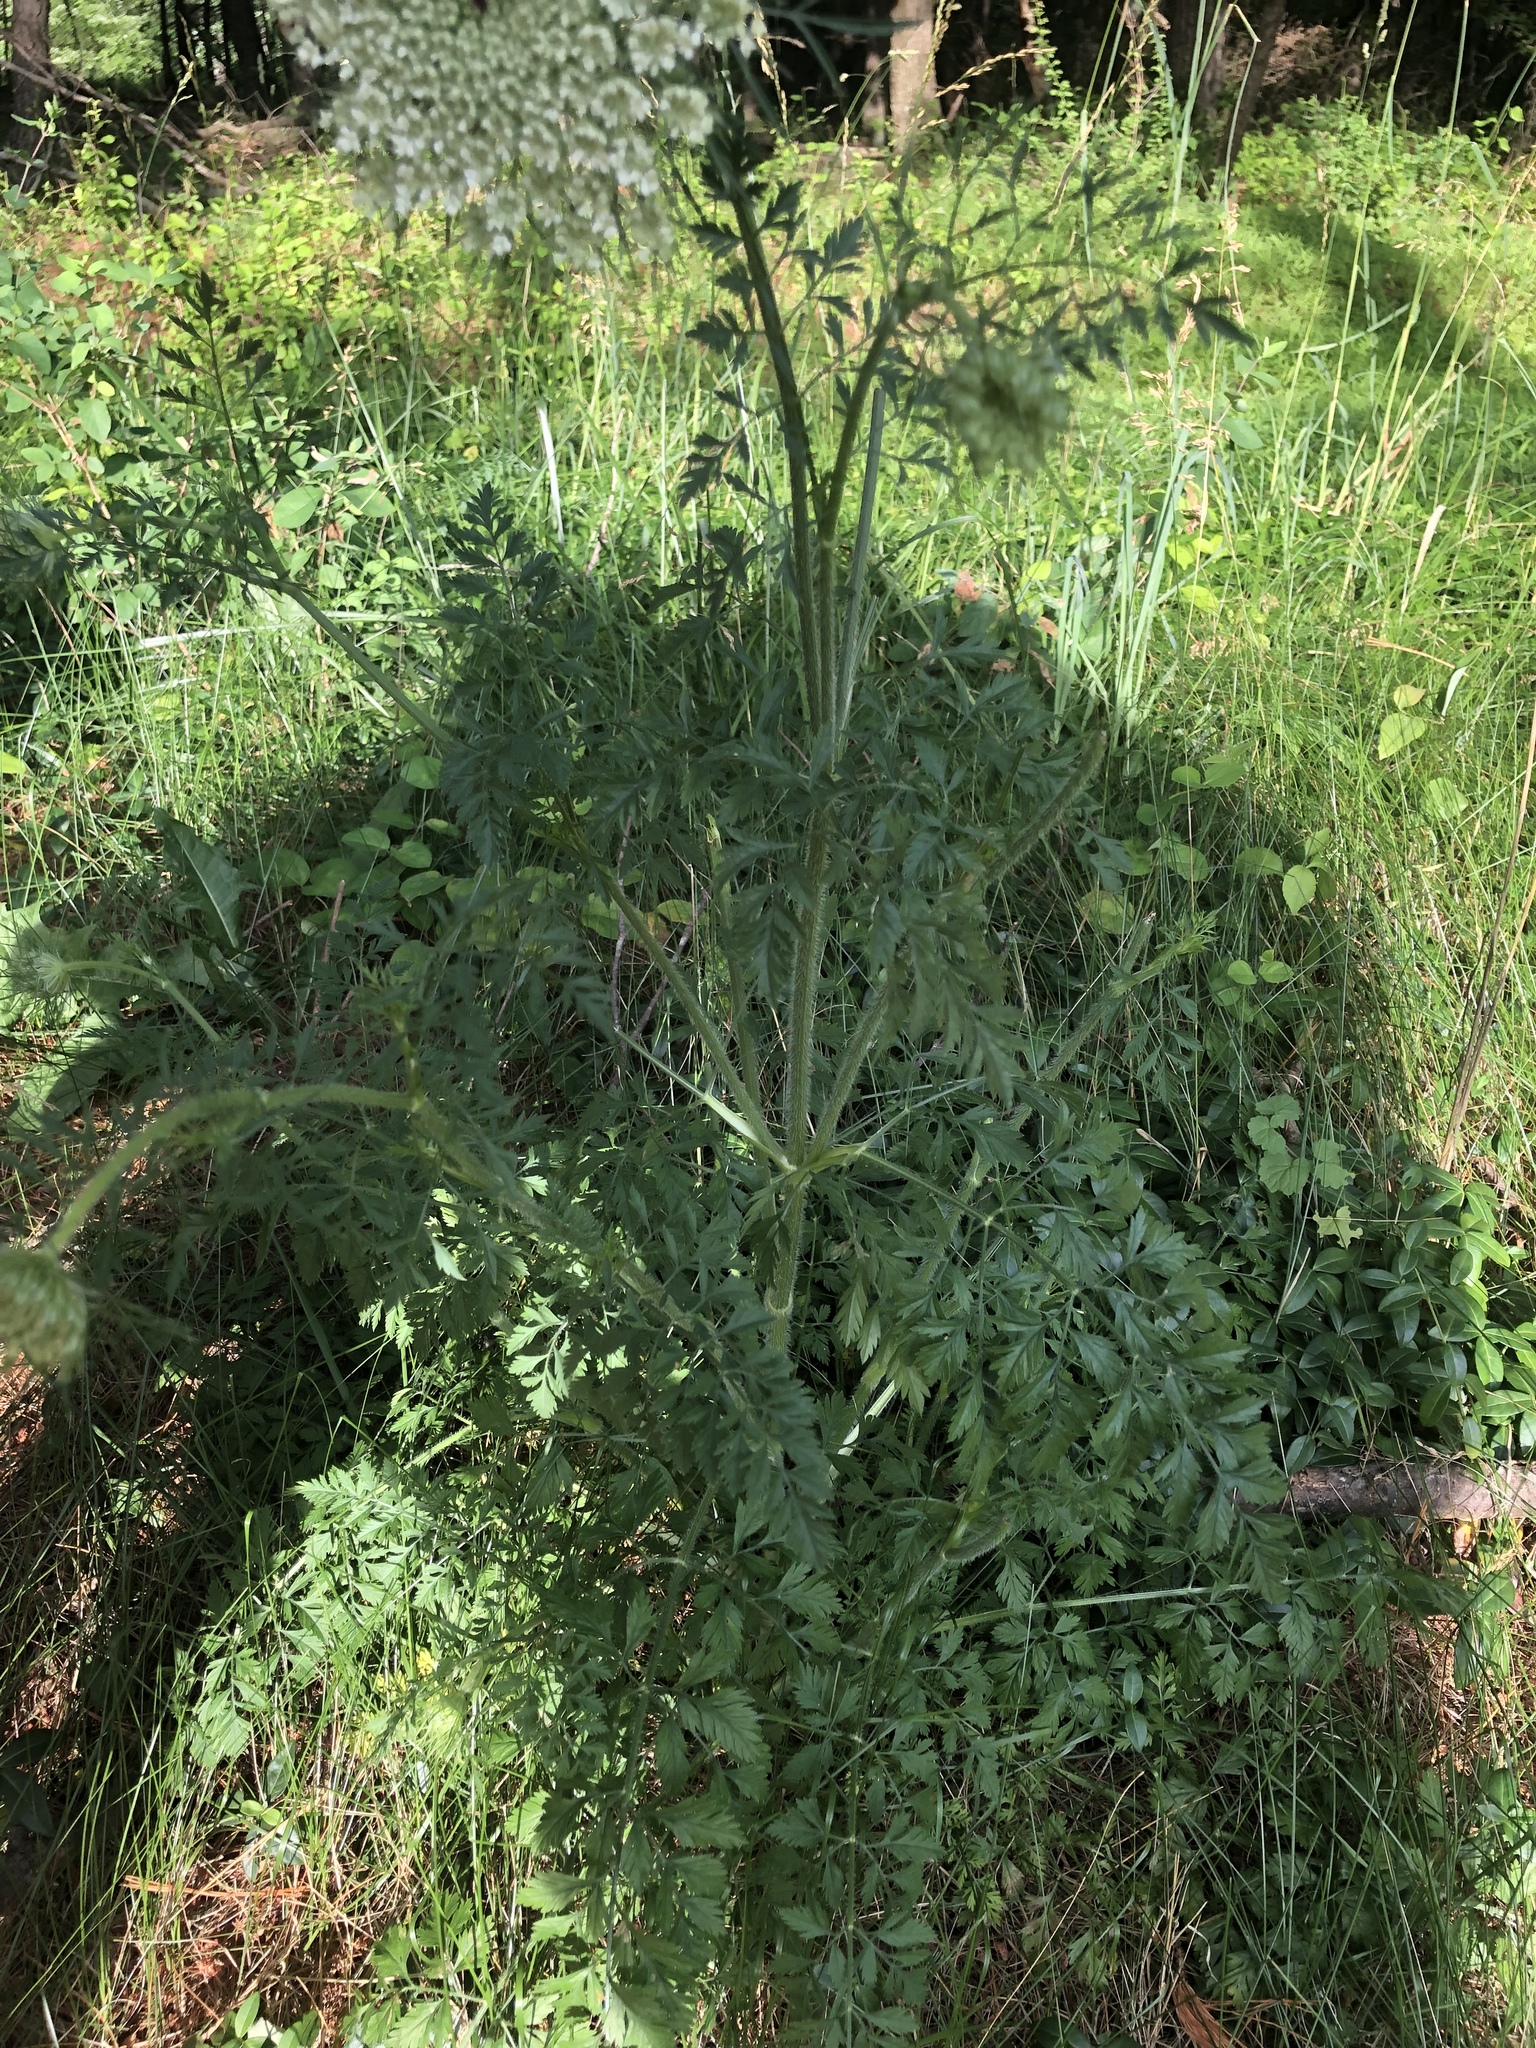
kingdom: Plantae
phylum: Tracheophyta
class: Magnoliopsida
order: Apiales
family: Apiaceae
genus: Daucus
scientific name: Daucus carota
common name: Wild carrot
